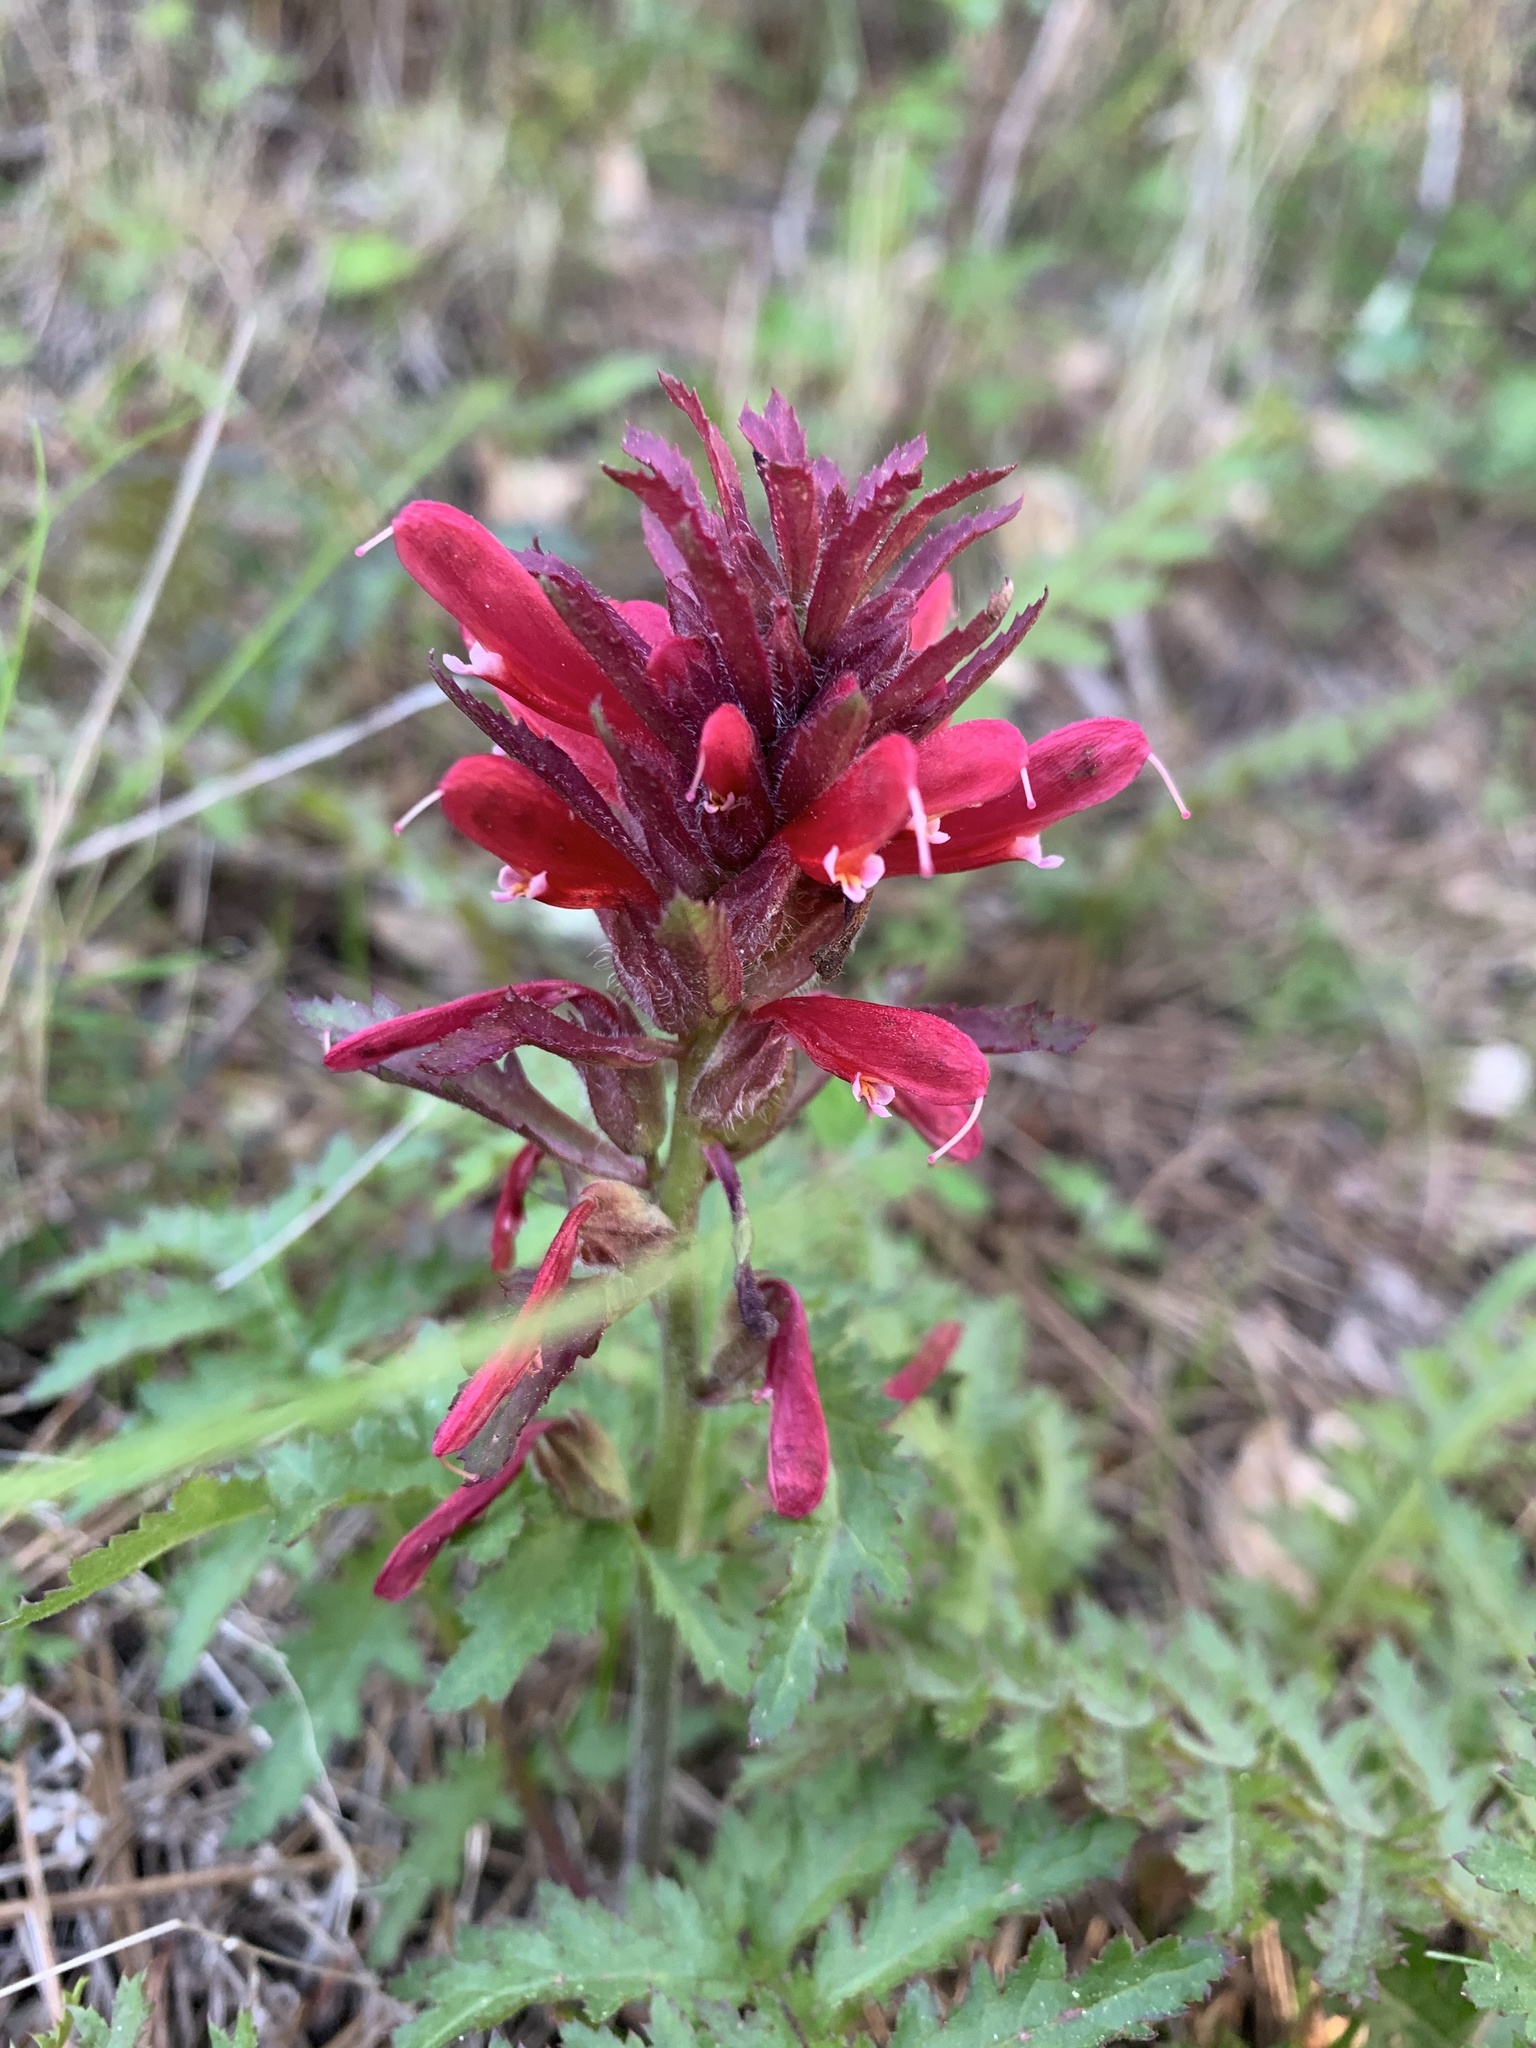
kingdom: Plantae
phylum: Tracheophyta
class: Magnoliopsida
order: Lamiales
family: Orobanchaceae
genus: Pedicularis
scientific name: Pedicularis densiflora
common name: Indian warrior
